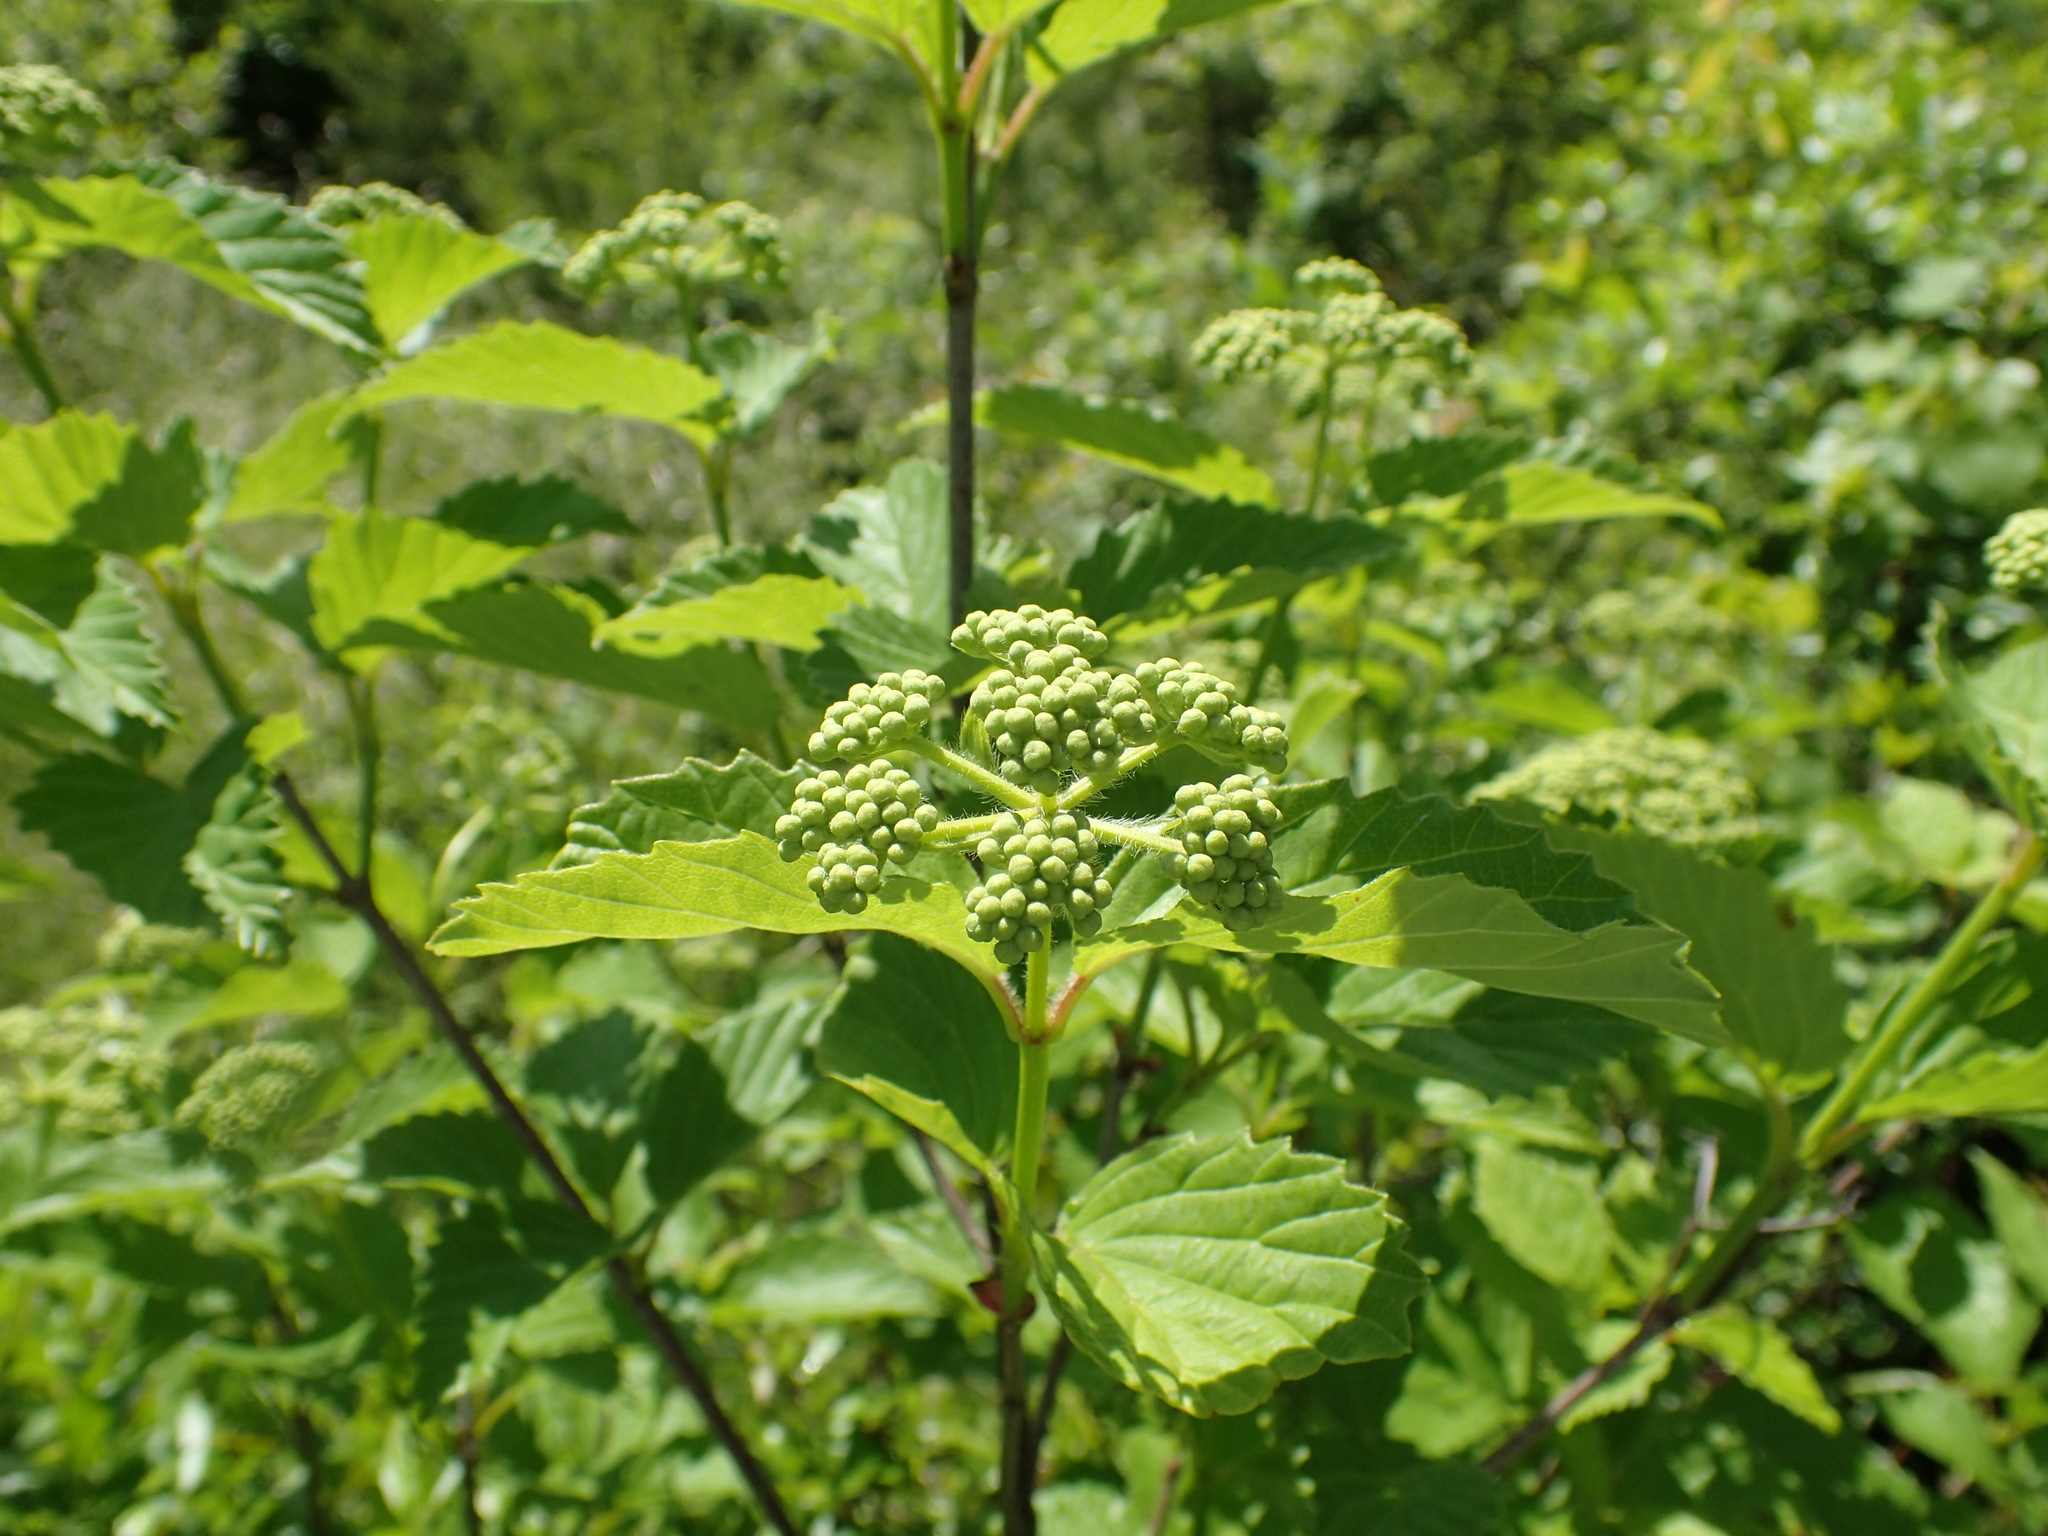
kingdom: Plantae
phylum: Tracheophyta
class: Magnoliopsida
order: Dipsacales
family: Viburnaceae
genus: Viburnum
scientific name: Viburnum scabrellum
